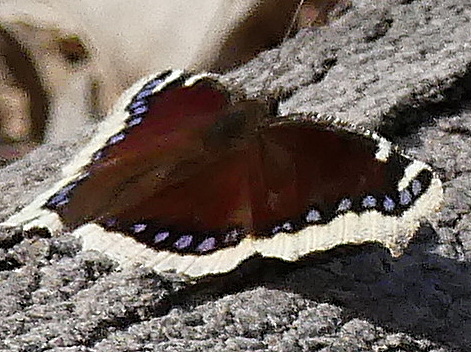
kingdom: Animalia
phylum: Arthropoda
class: Insecta
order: Lepidoptera
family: Nymphalidae
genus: Nymphalis
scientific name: Nymphalis antiopa
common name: Camberwell beauty
